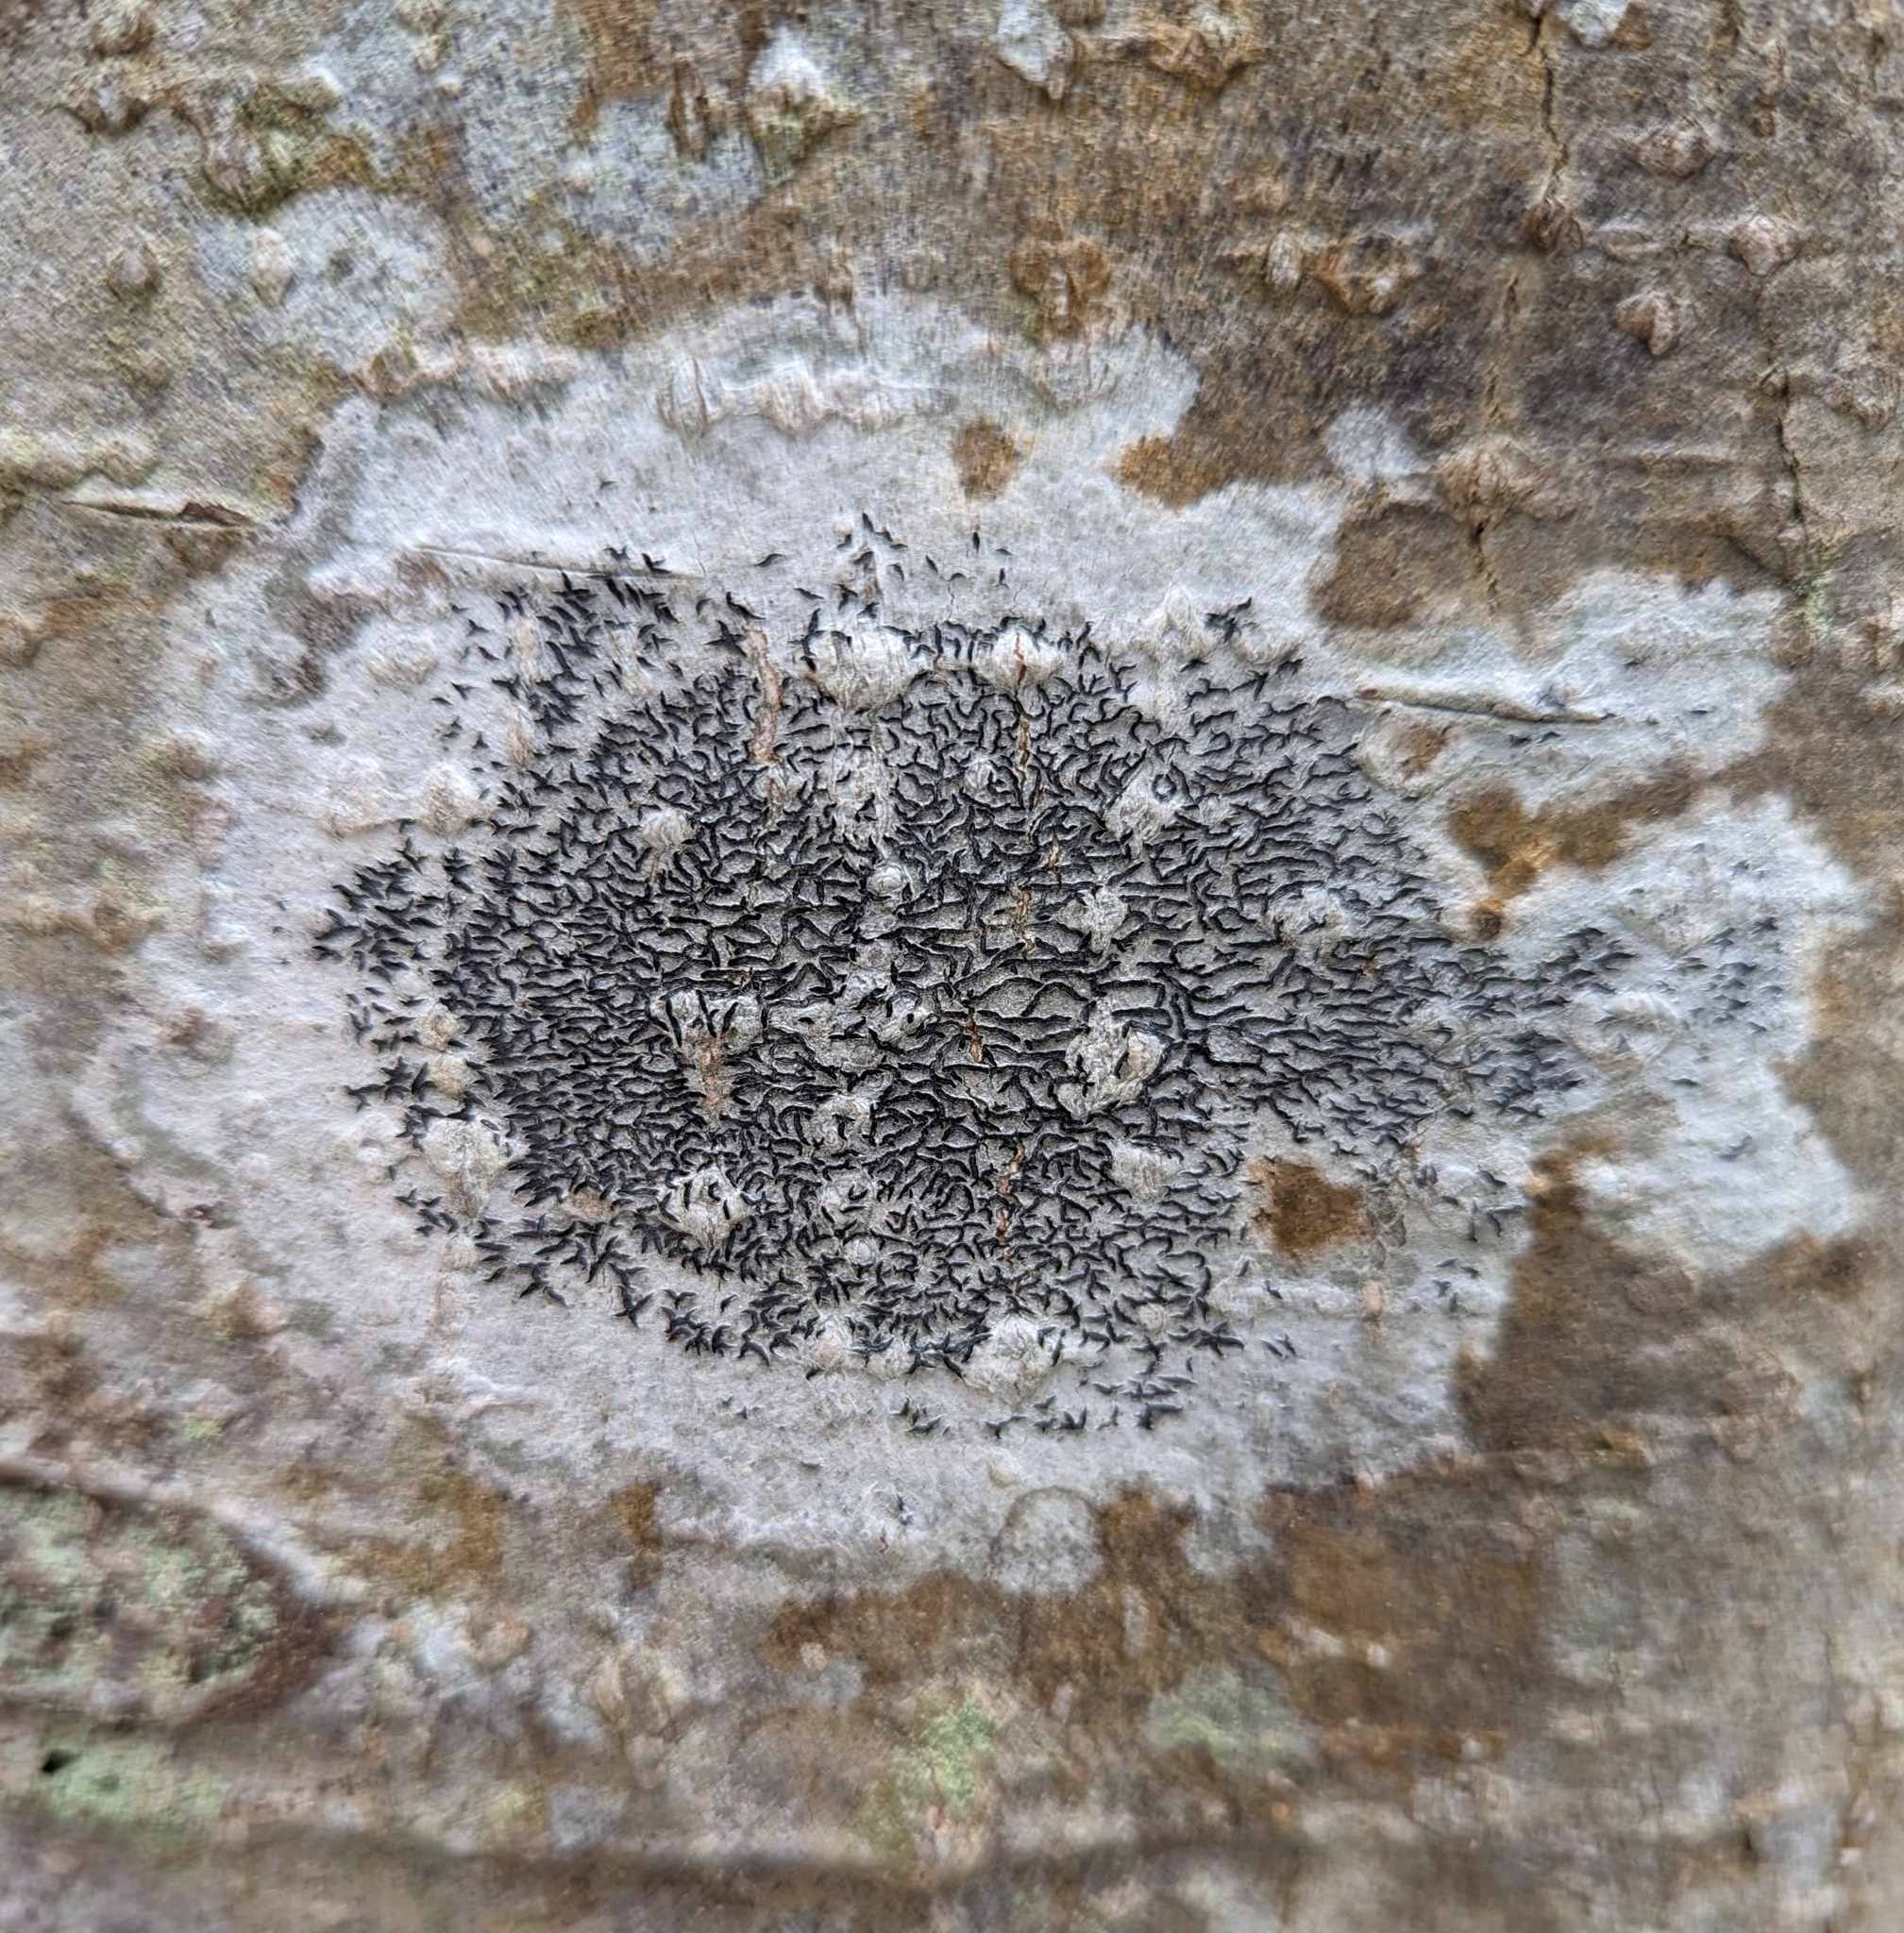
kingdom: Fungi
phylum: Ascomycota
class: Lecanoromycetes
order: Ostropales
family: Graphidaceae
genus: Graphis
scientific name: Graphis scripta
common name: Script lichen
